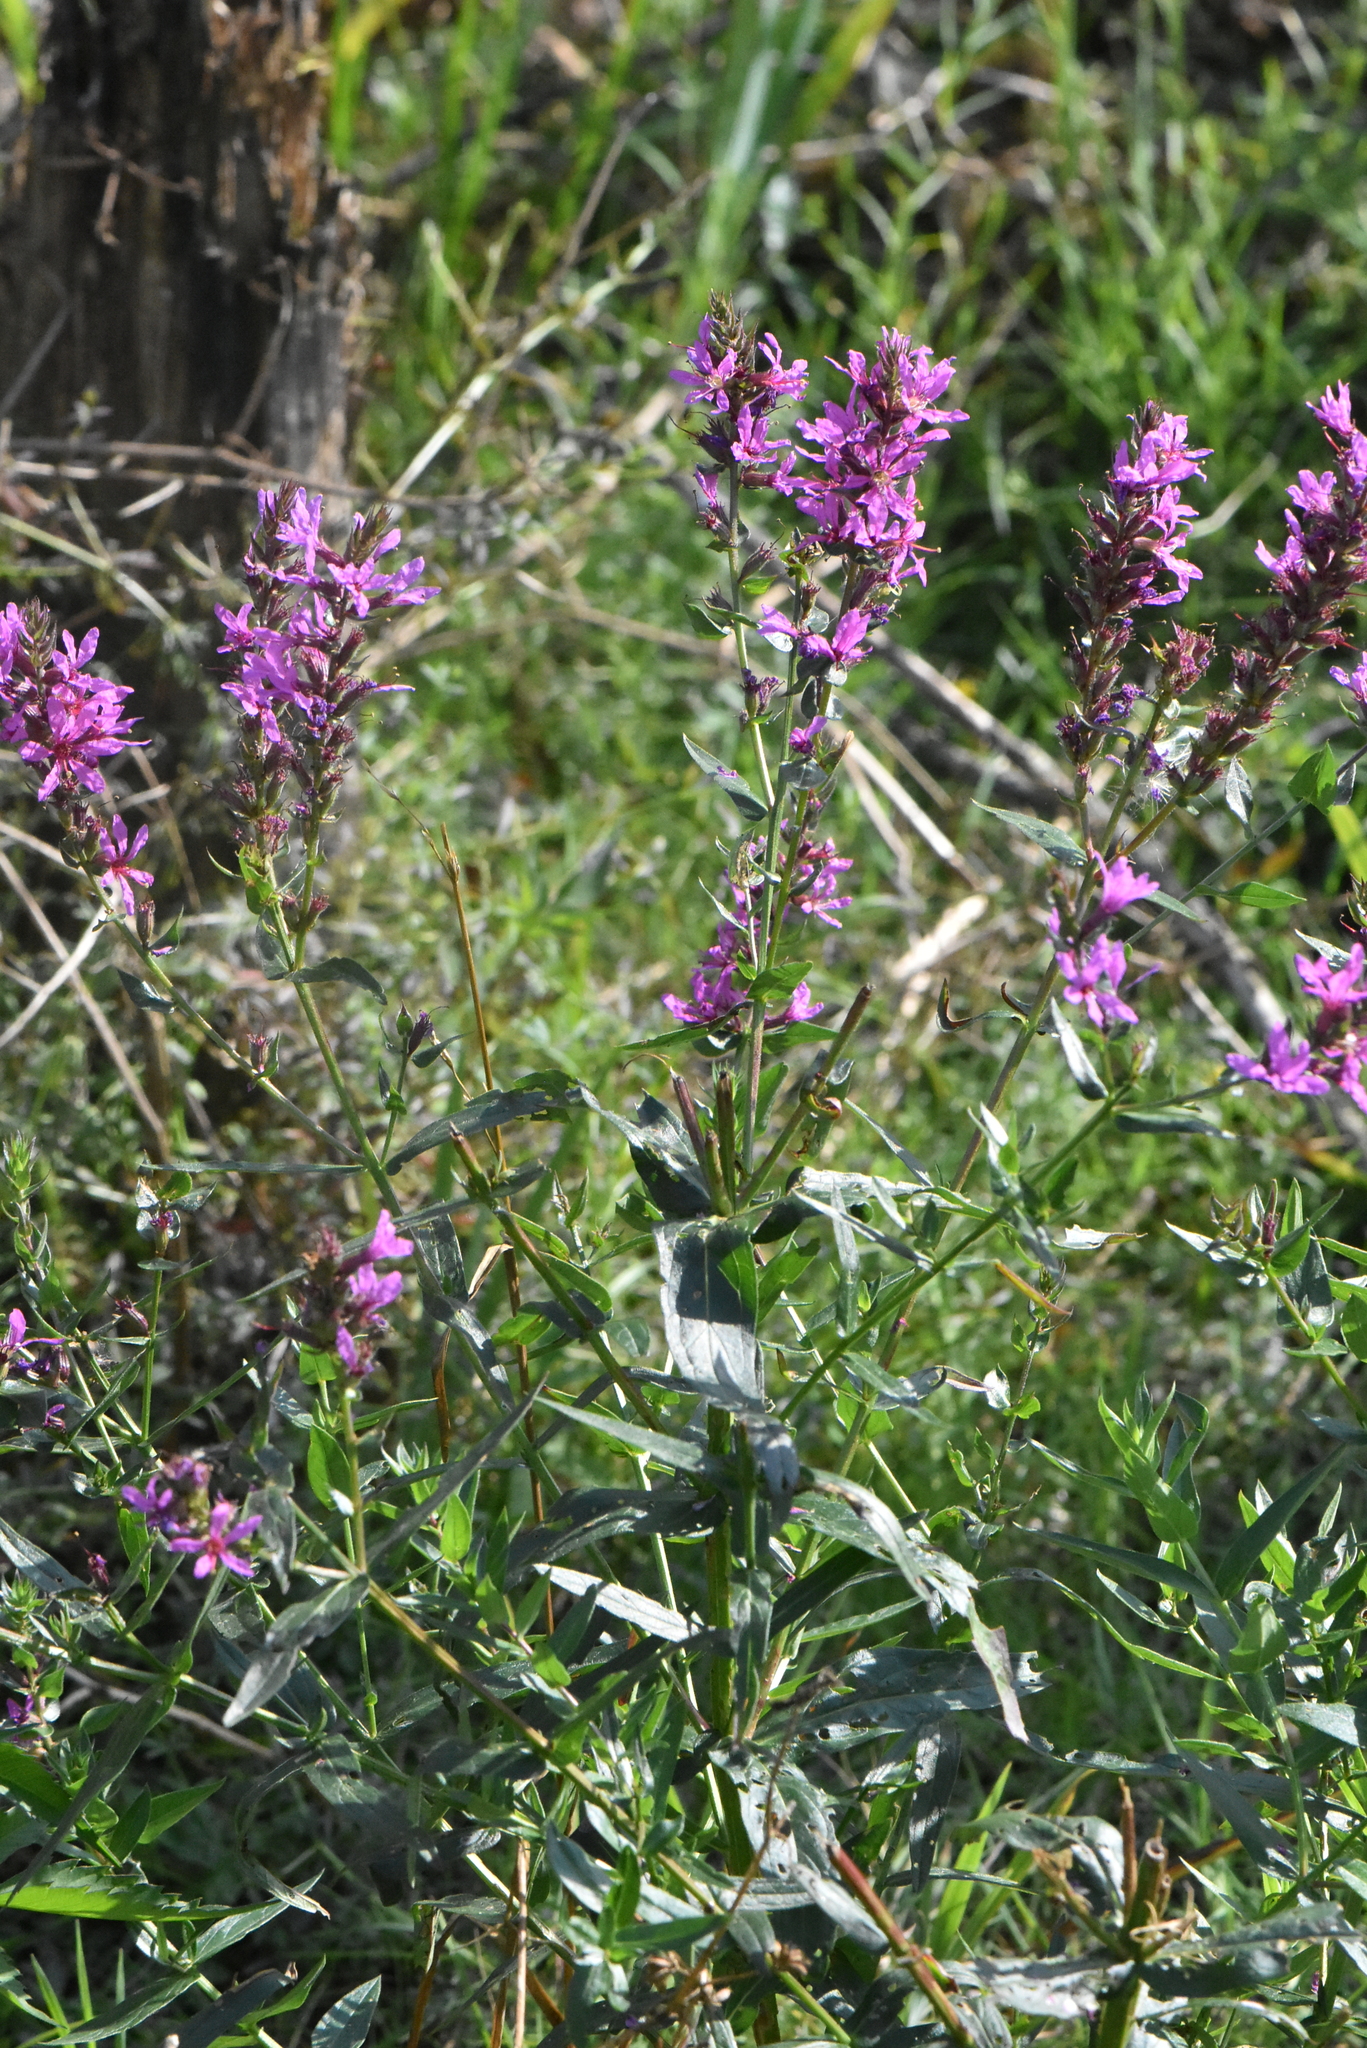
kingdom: Plantae
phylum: Tracheophyta
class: Magnoliopsida
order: Myrtales
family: Lythraceae
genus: Lythrum
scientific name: Lythrum salicaria
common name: Purple loosestrife
